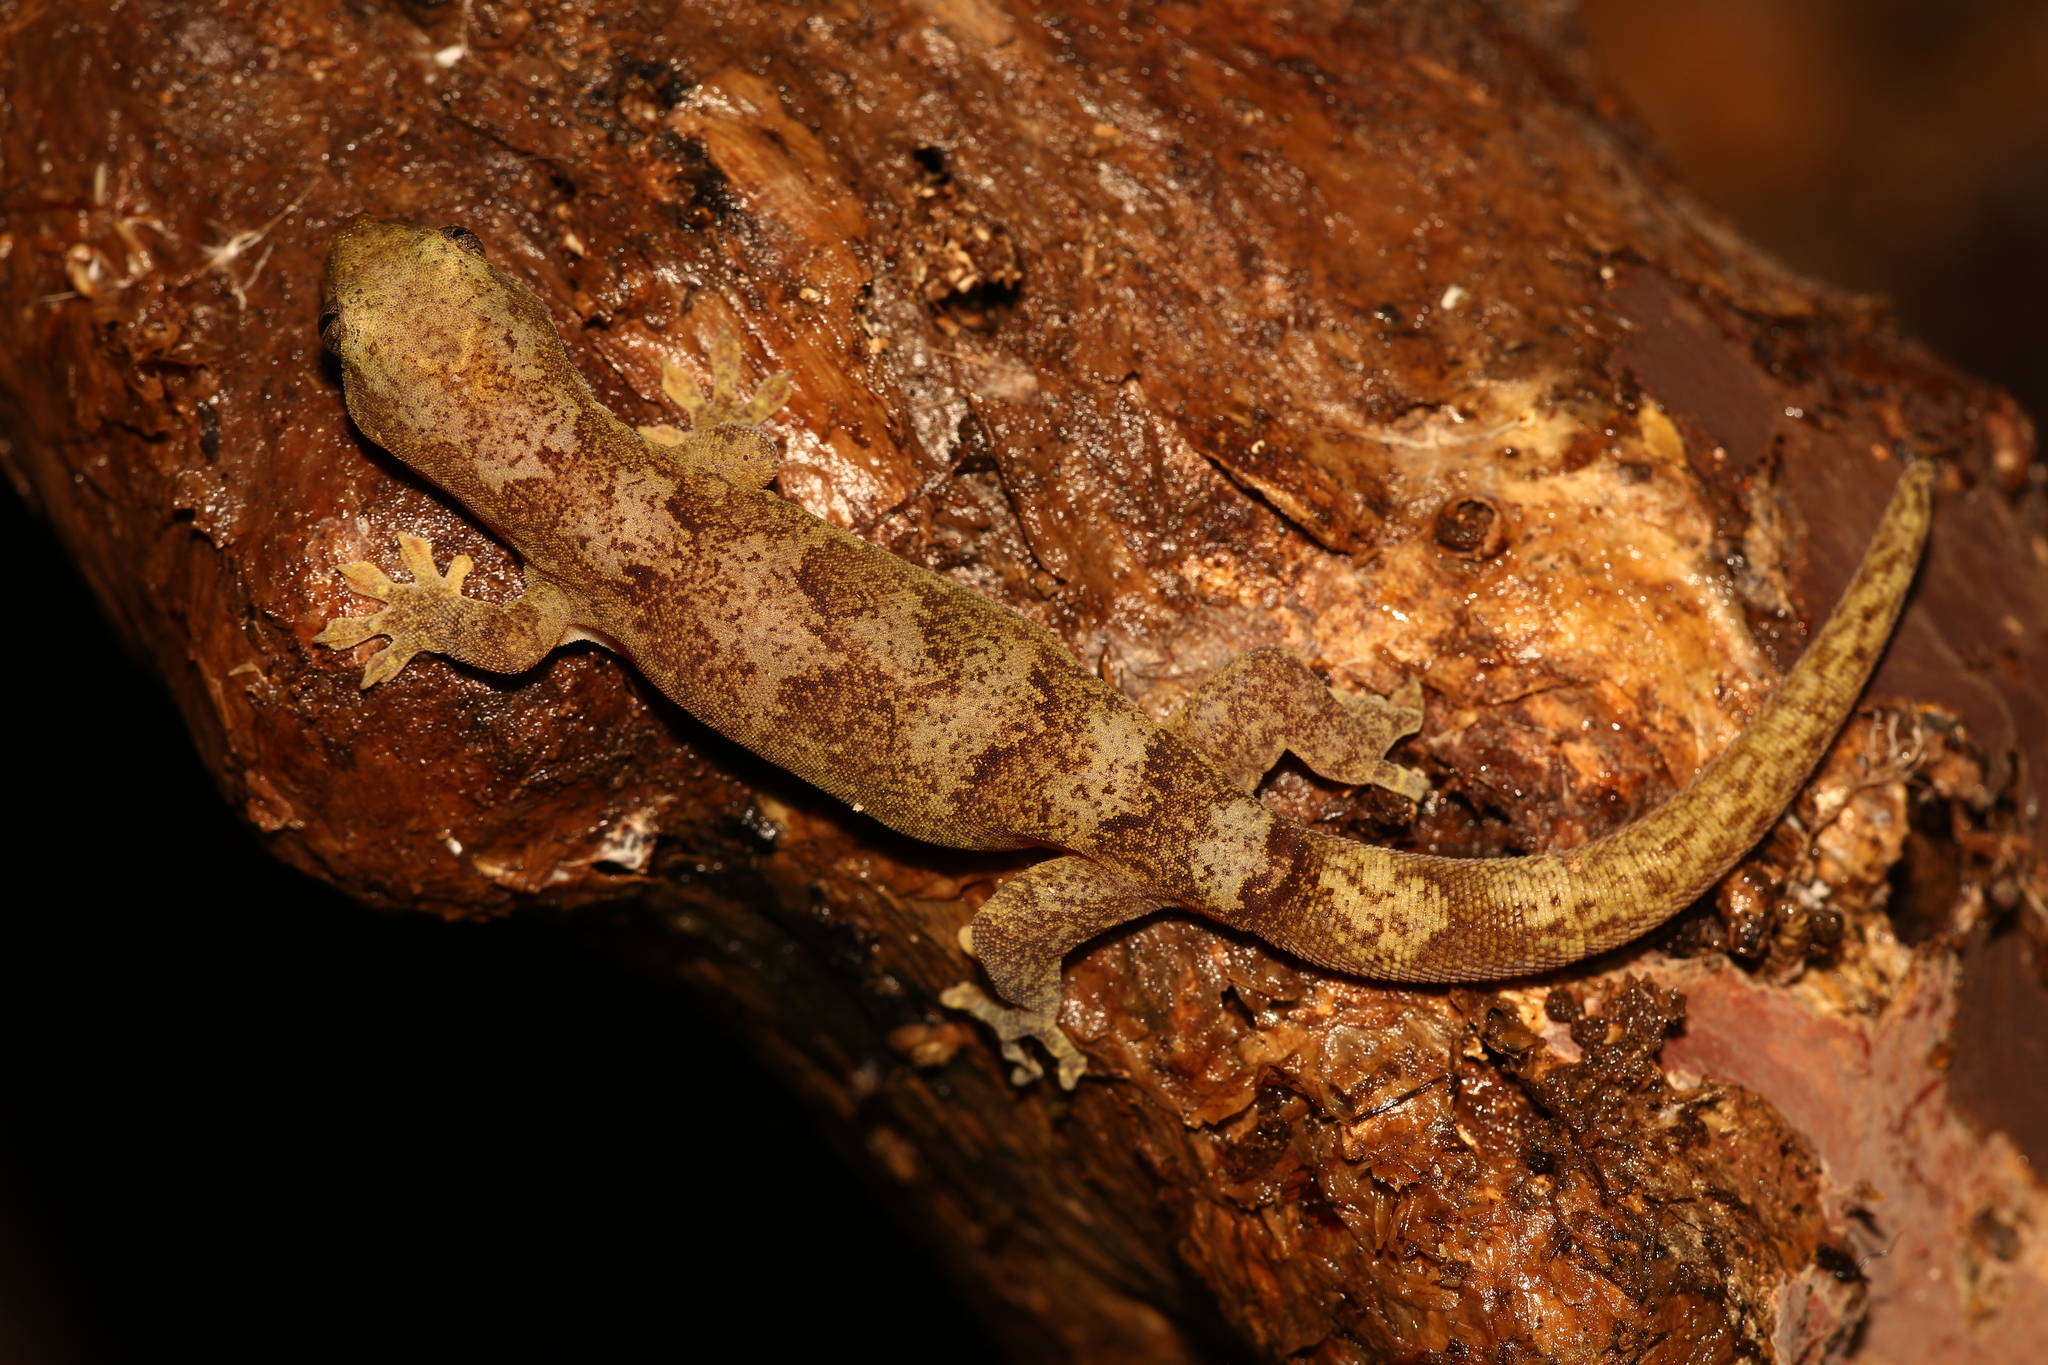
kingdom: Animalia
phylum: Chordata
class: Squamata
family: Diplodactylidae
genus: Bavayia
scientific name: Bavayia
